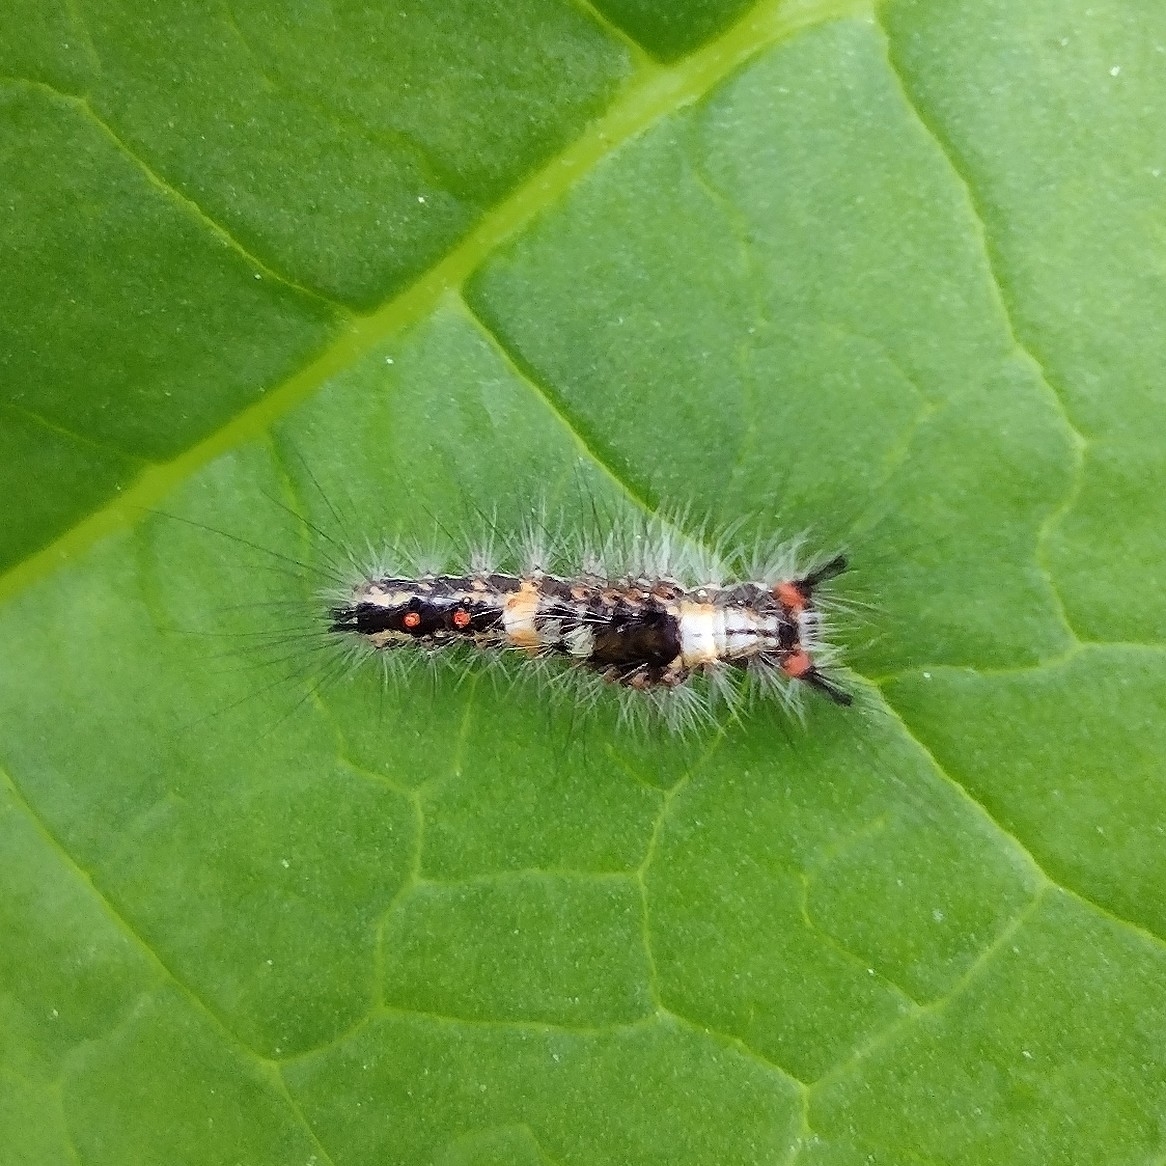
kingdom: Animalia
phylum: Arthropoda
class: Insecta
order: Lepidoptera
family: Erebidae
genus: Orgyia
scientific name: Orgyia antiqua
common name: Vapourer
